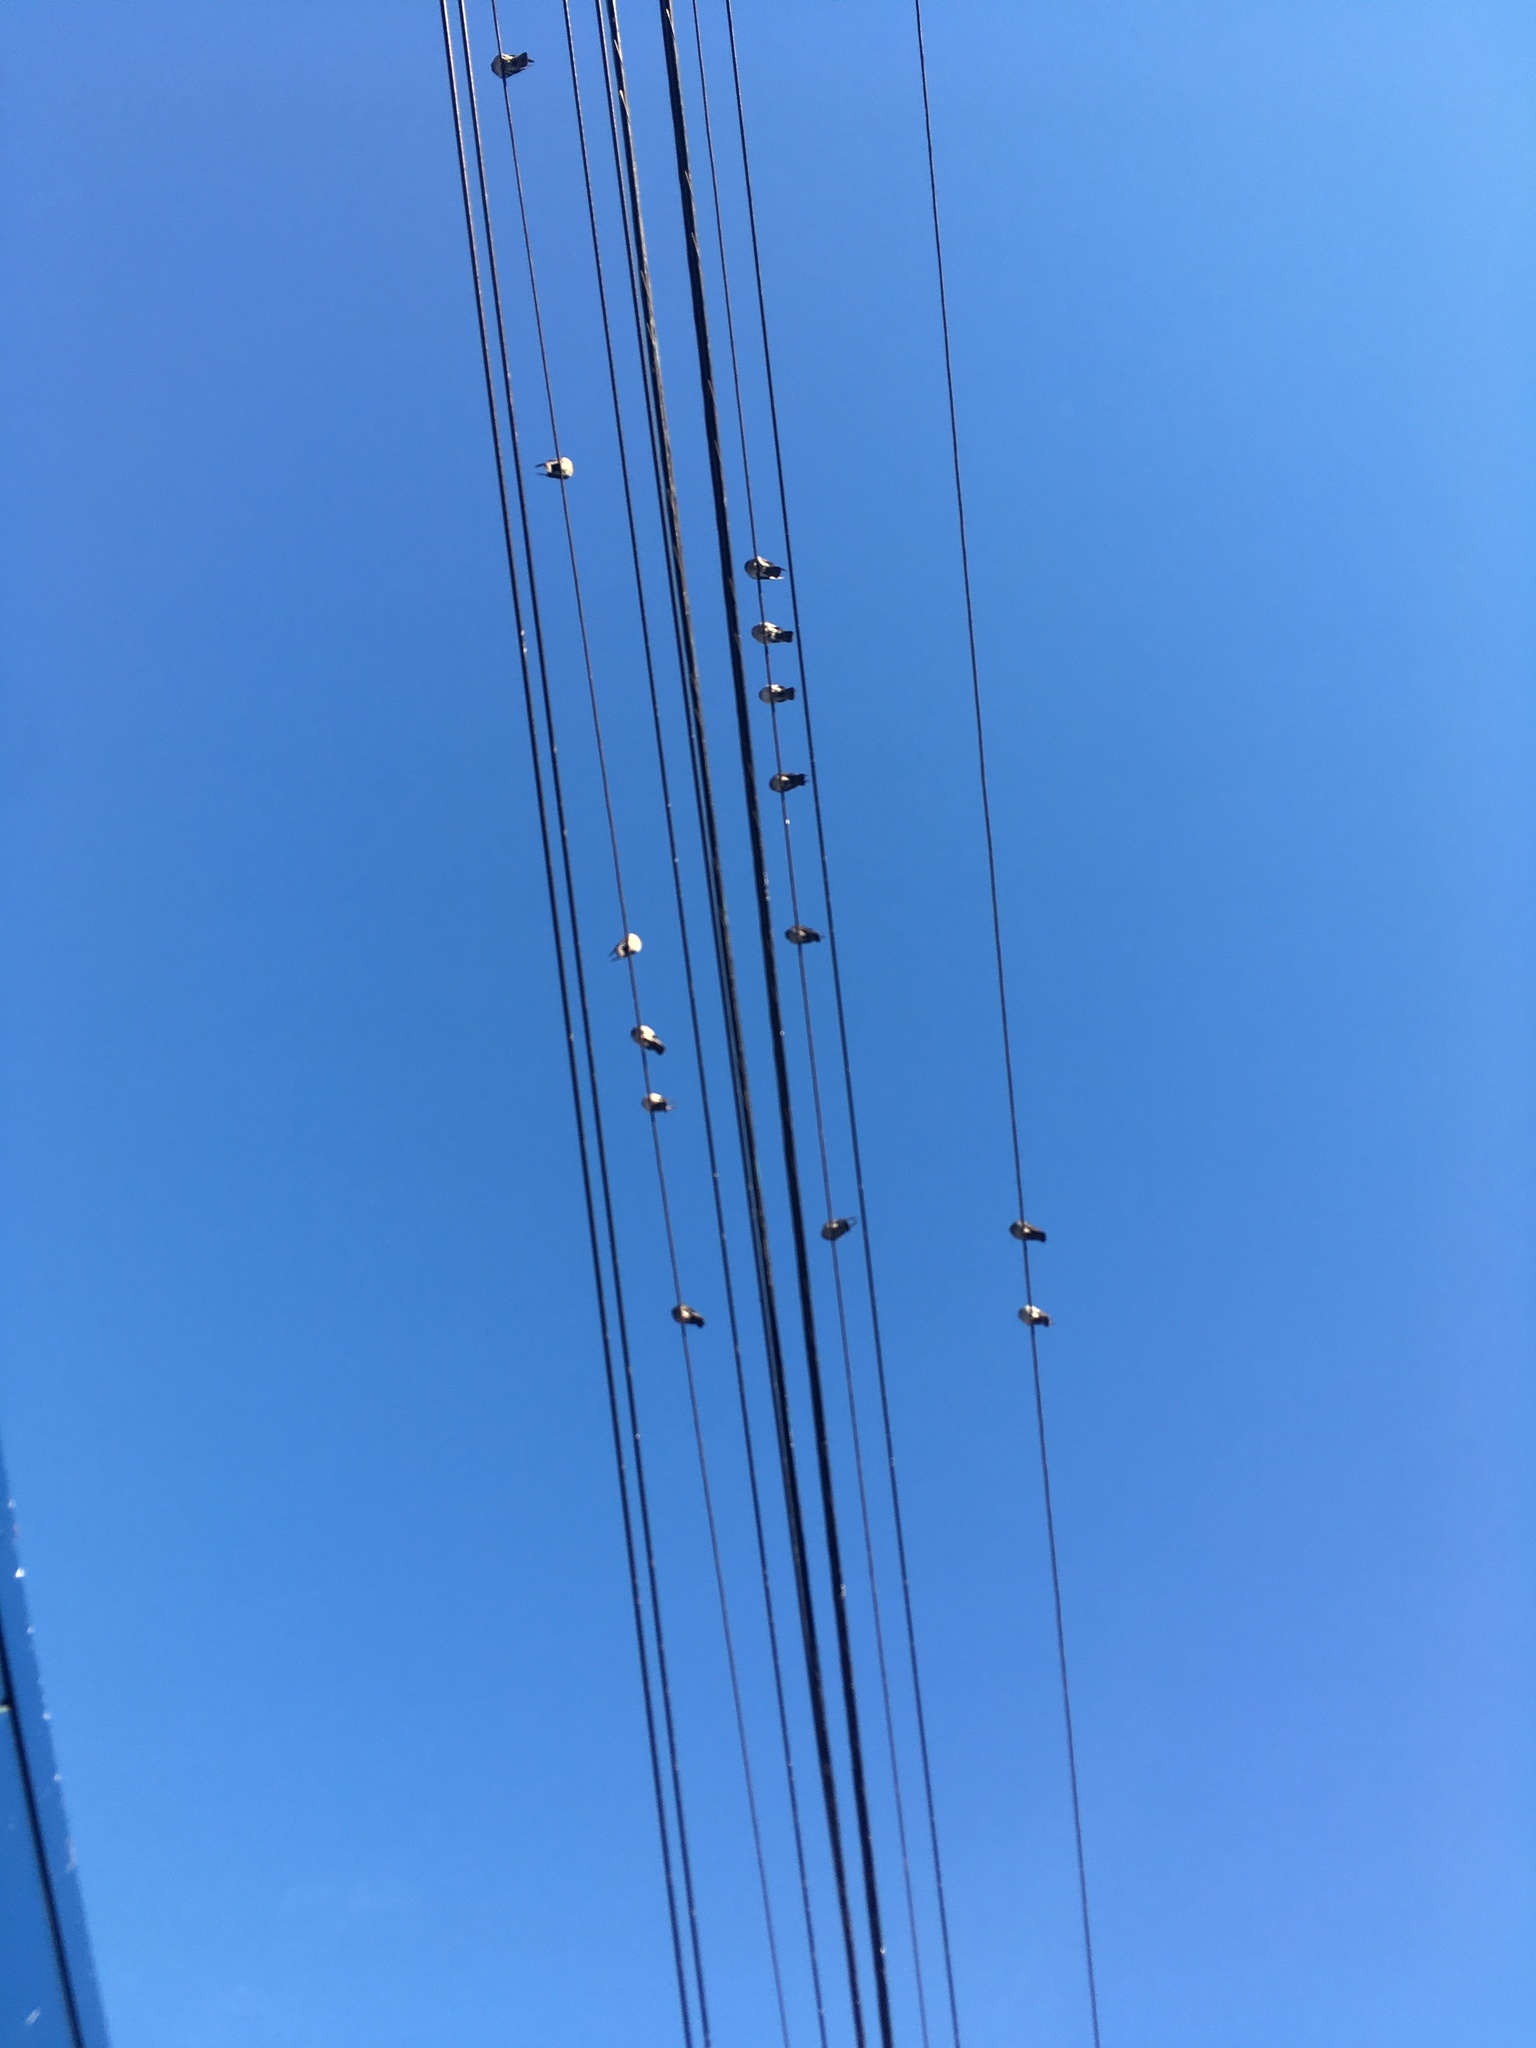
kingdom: Animalia
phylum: Chordata
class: Aves
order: Columbiformes
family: Columbidae
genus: Columba
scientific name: Columba livia
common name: Rock pigeon
